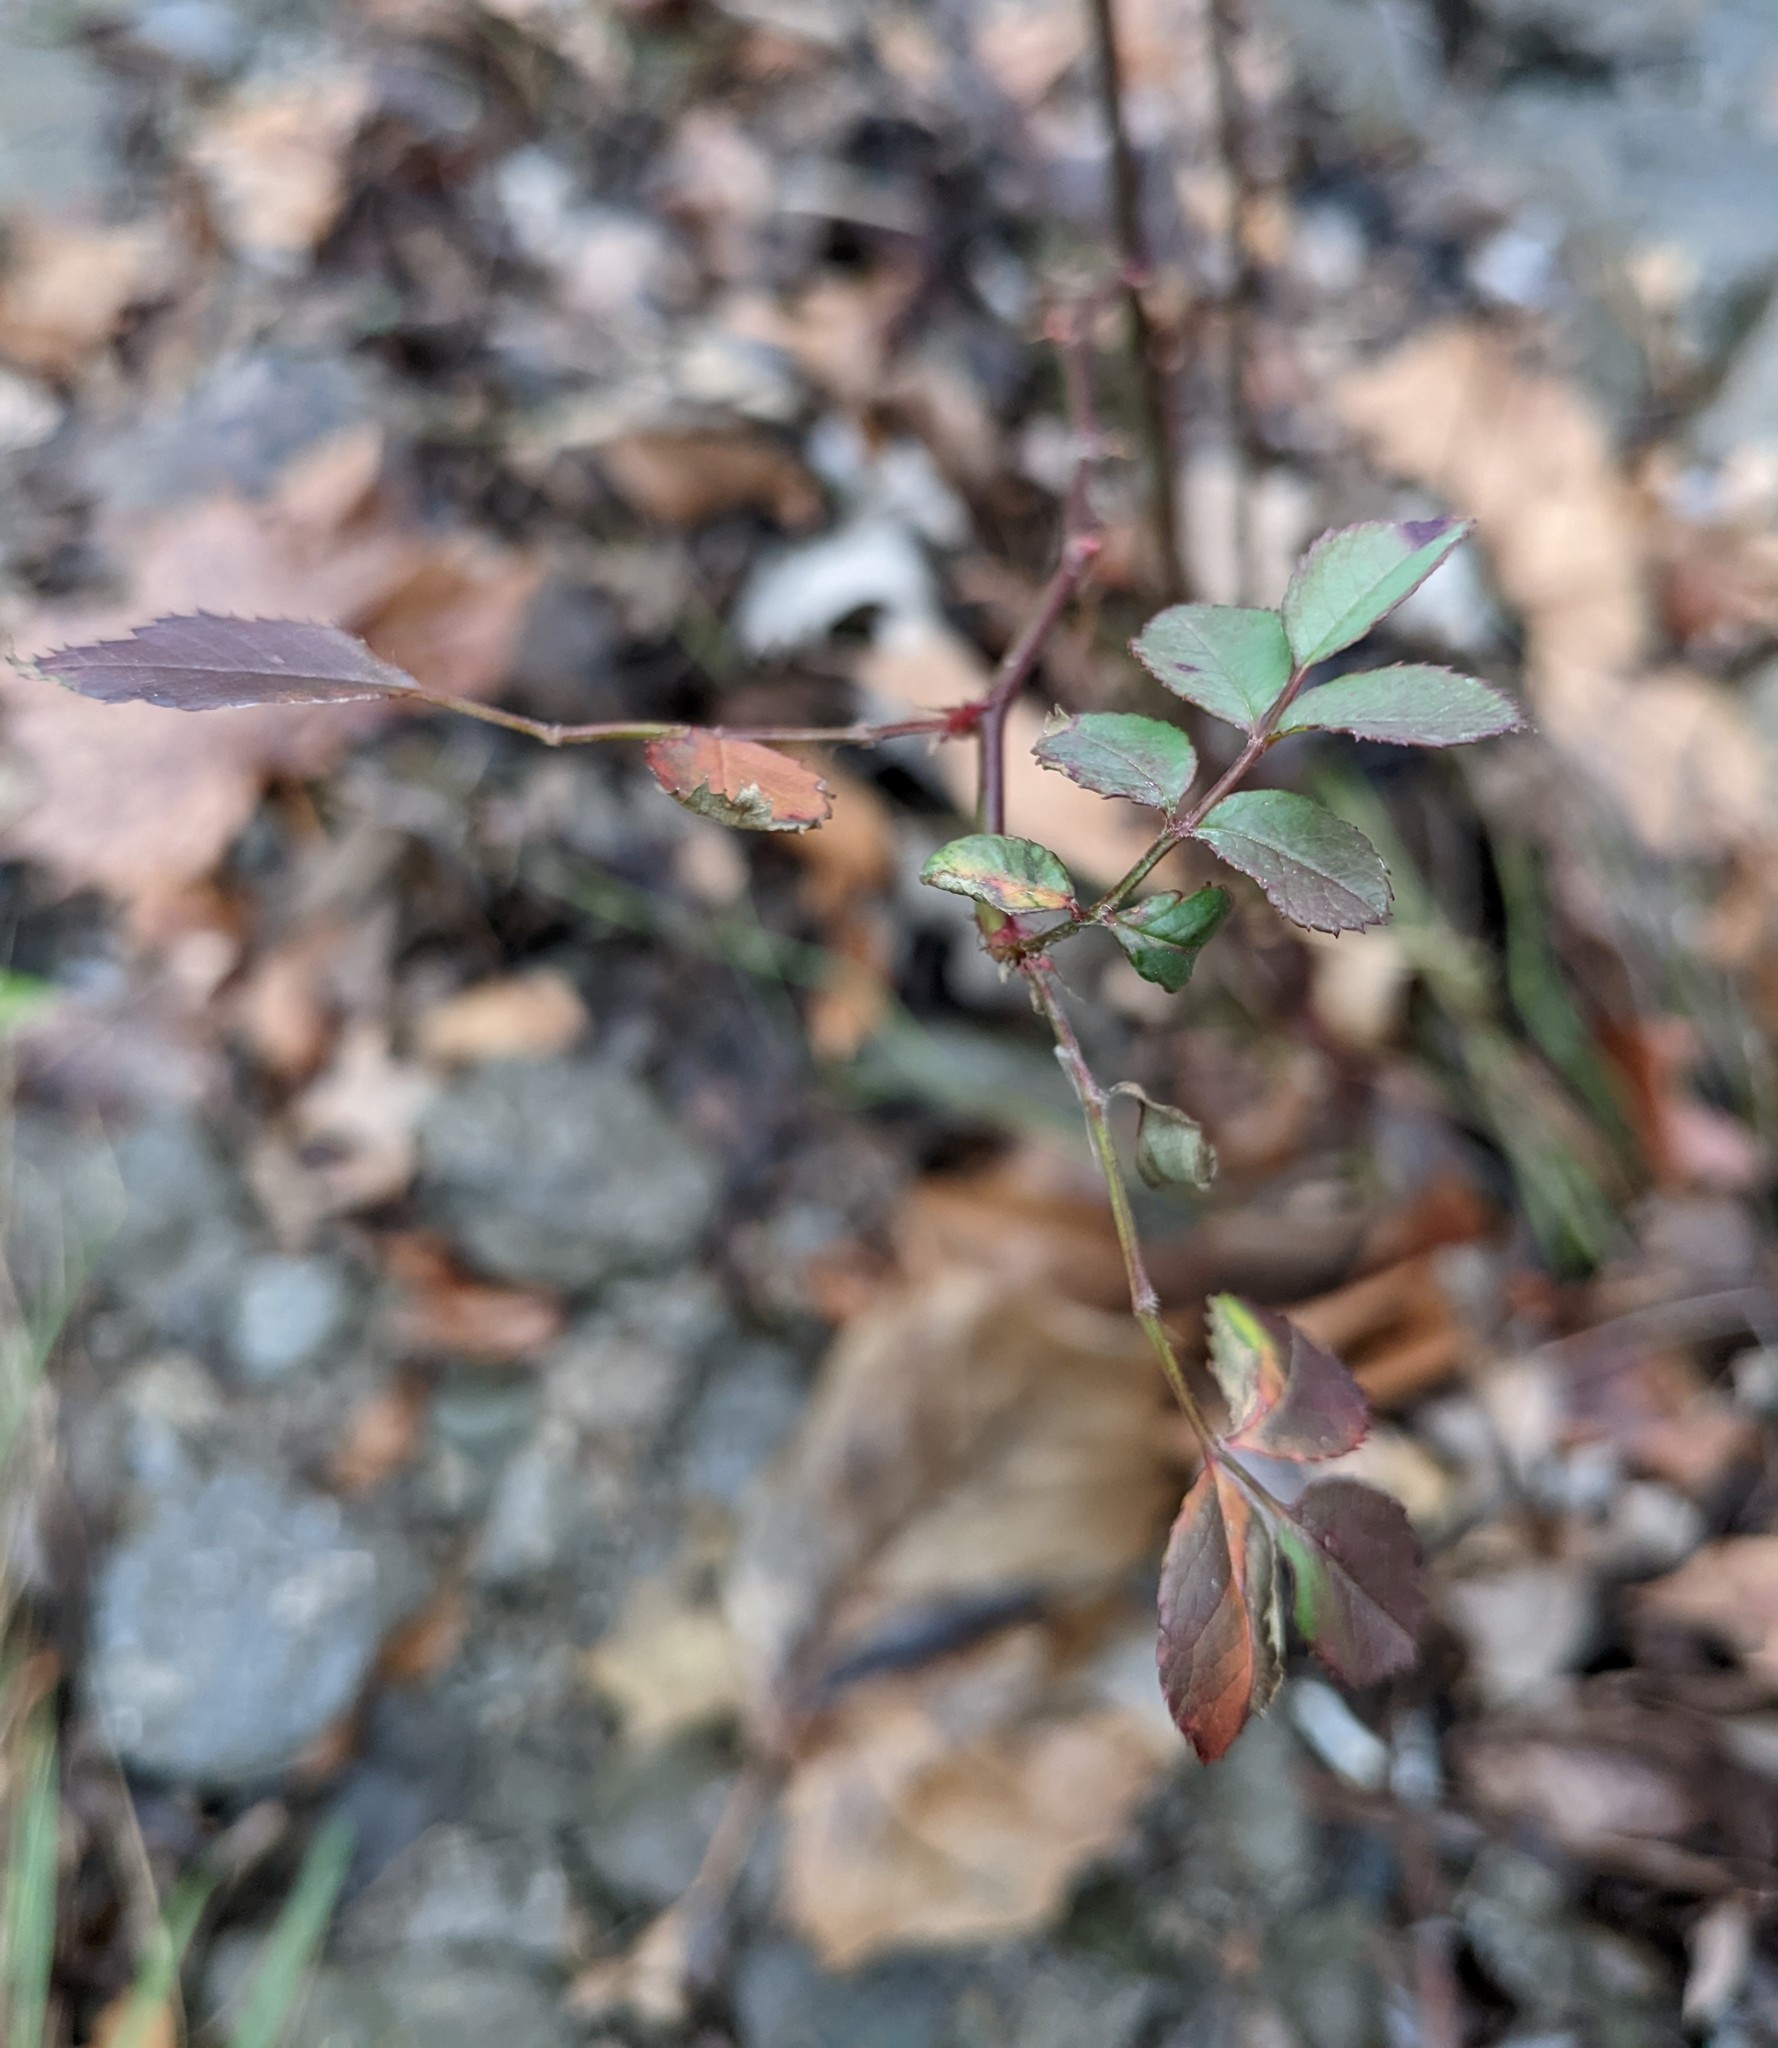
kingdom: Plantae
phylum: Tracheophyta
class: Magnoliopsida
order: Rosales
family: Rosaceae
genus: Rosa
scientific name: Rosa multiflora
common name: Multiflora rose
